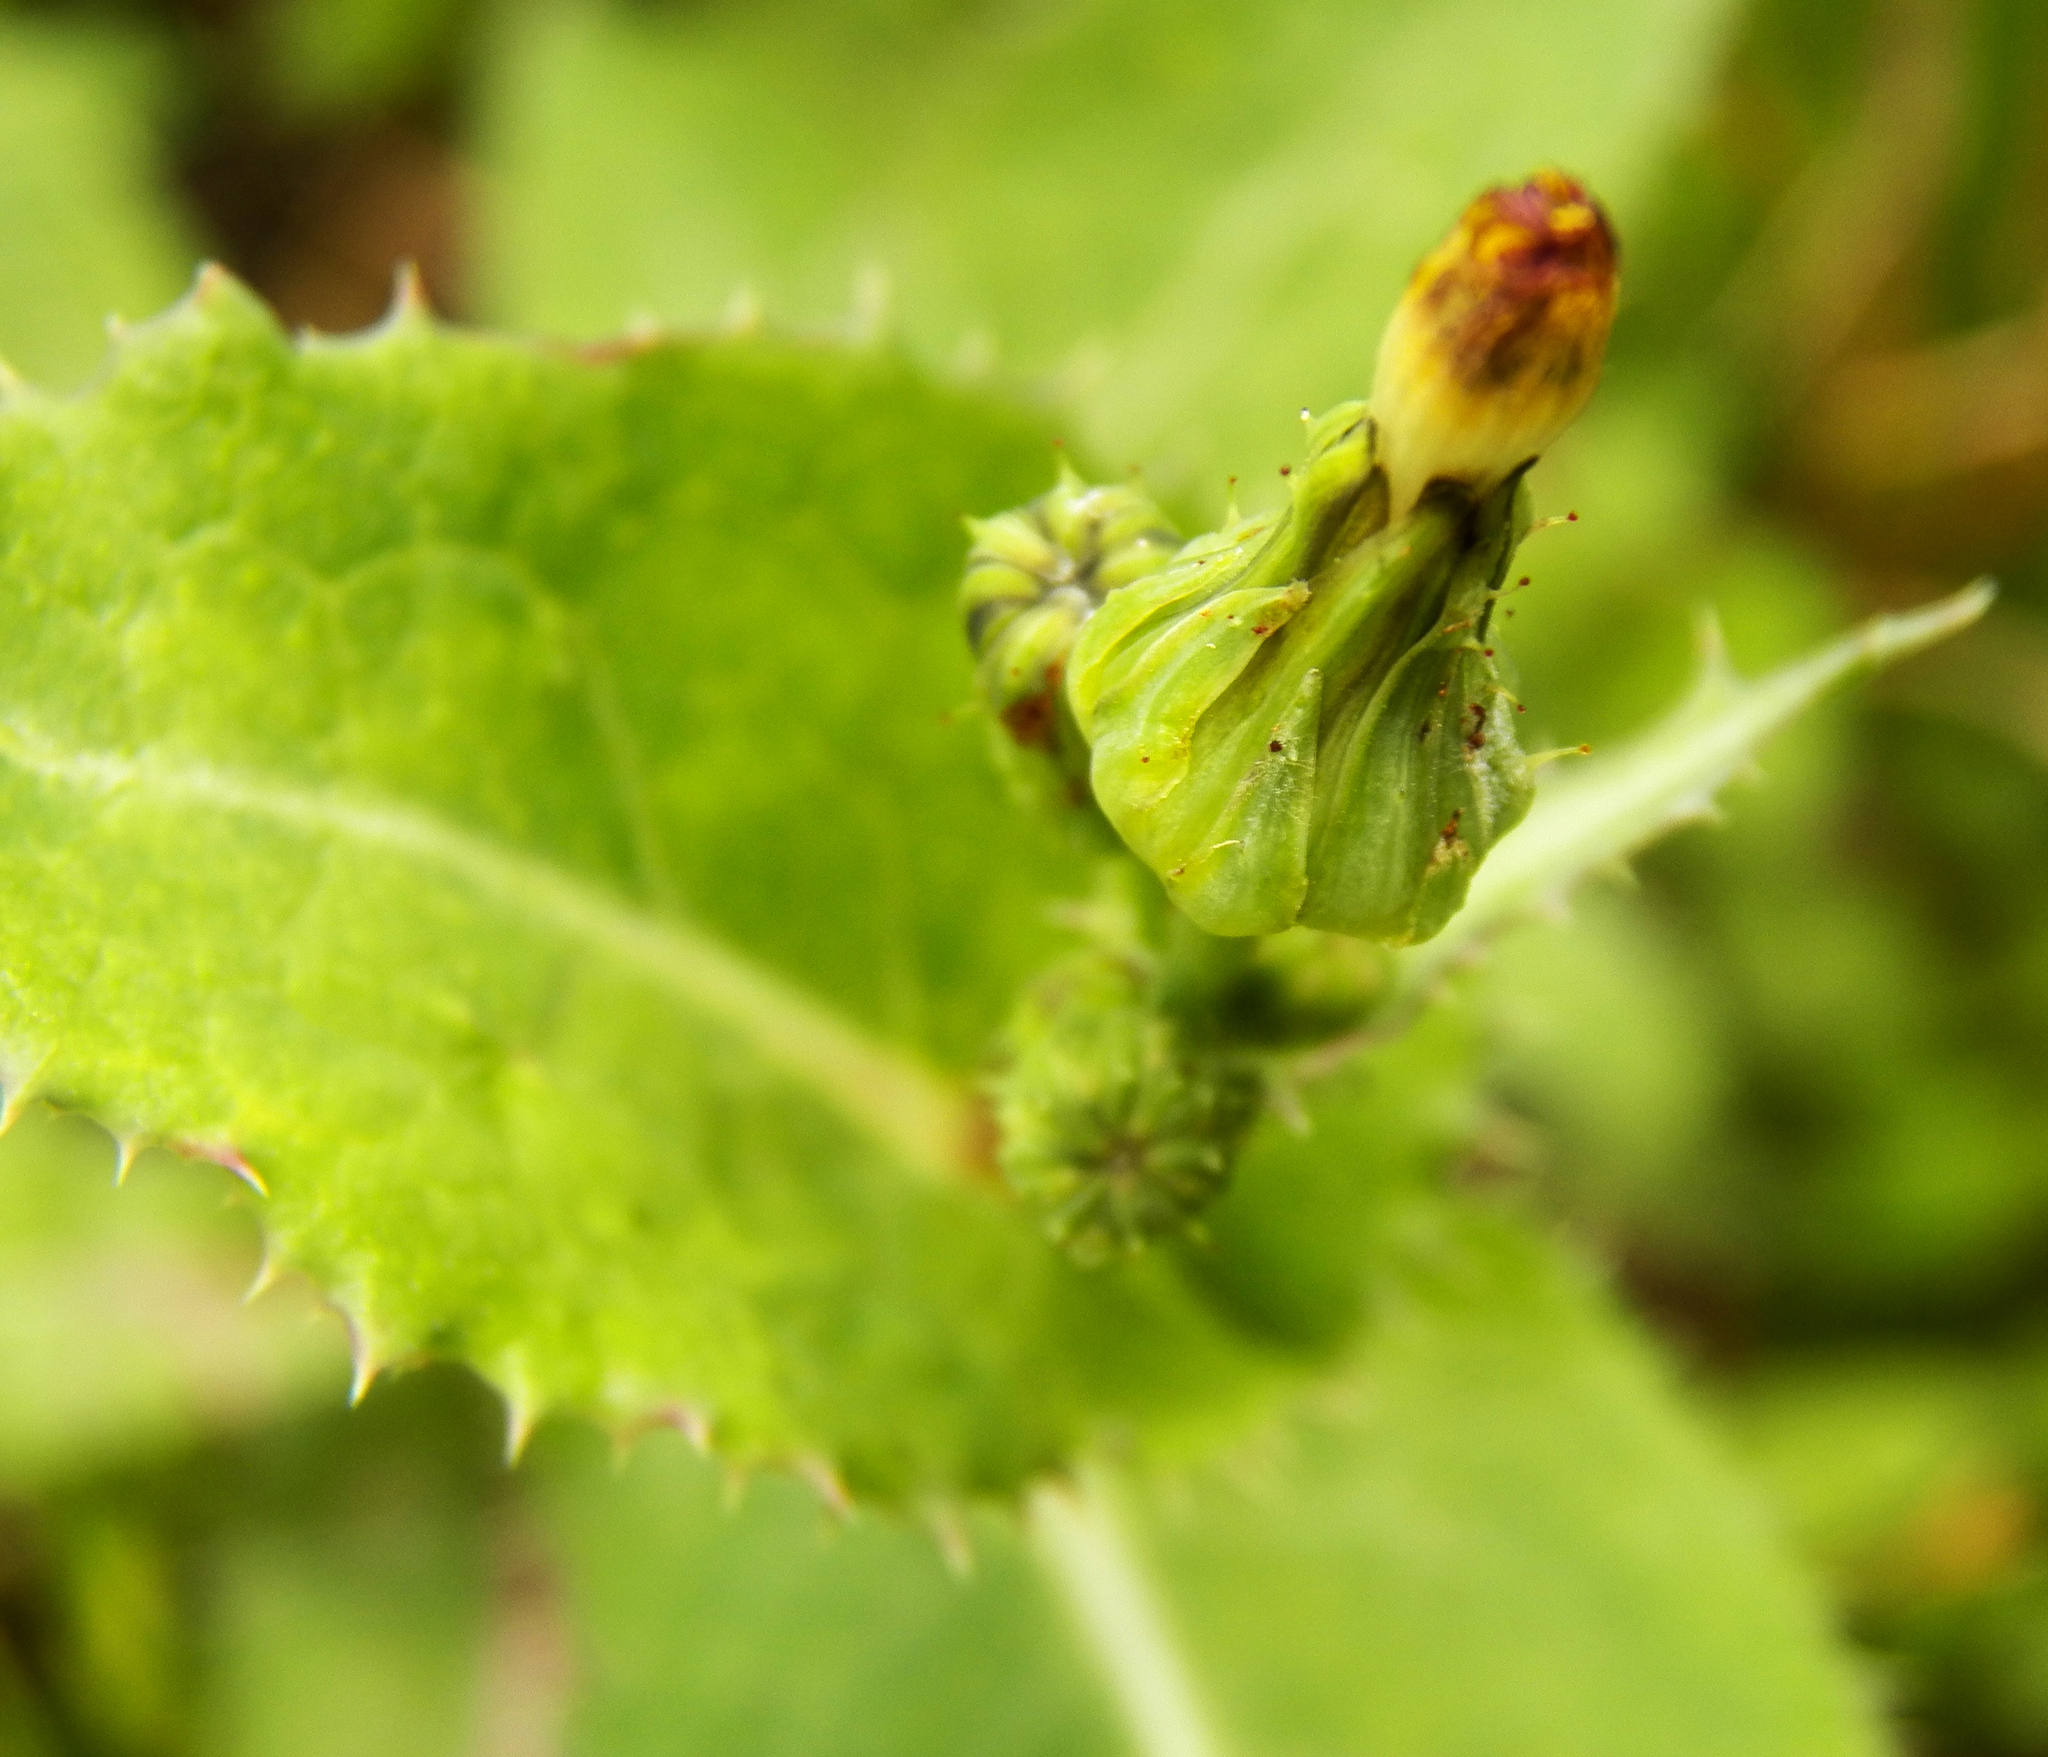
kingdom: Plantae
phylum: Tracheophyta
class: Magnoliopsida
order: Asterales
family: Asteraceae
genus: Sonchus
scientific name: Sonchus asper
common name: Prickly sow-thistle
